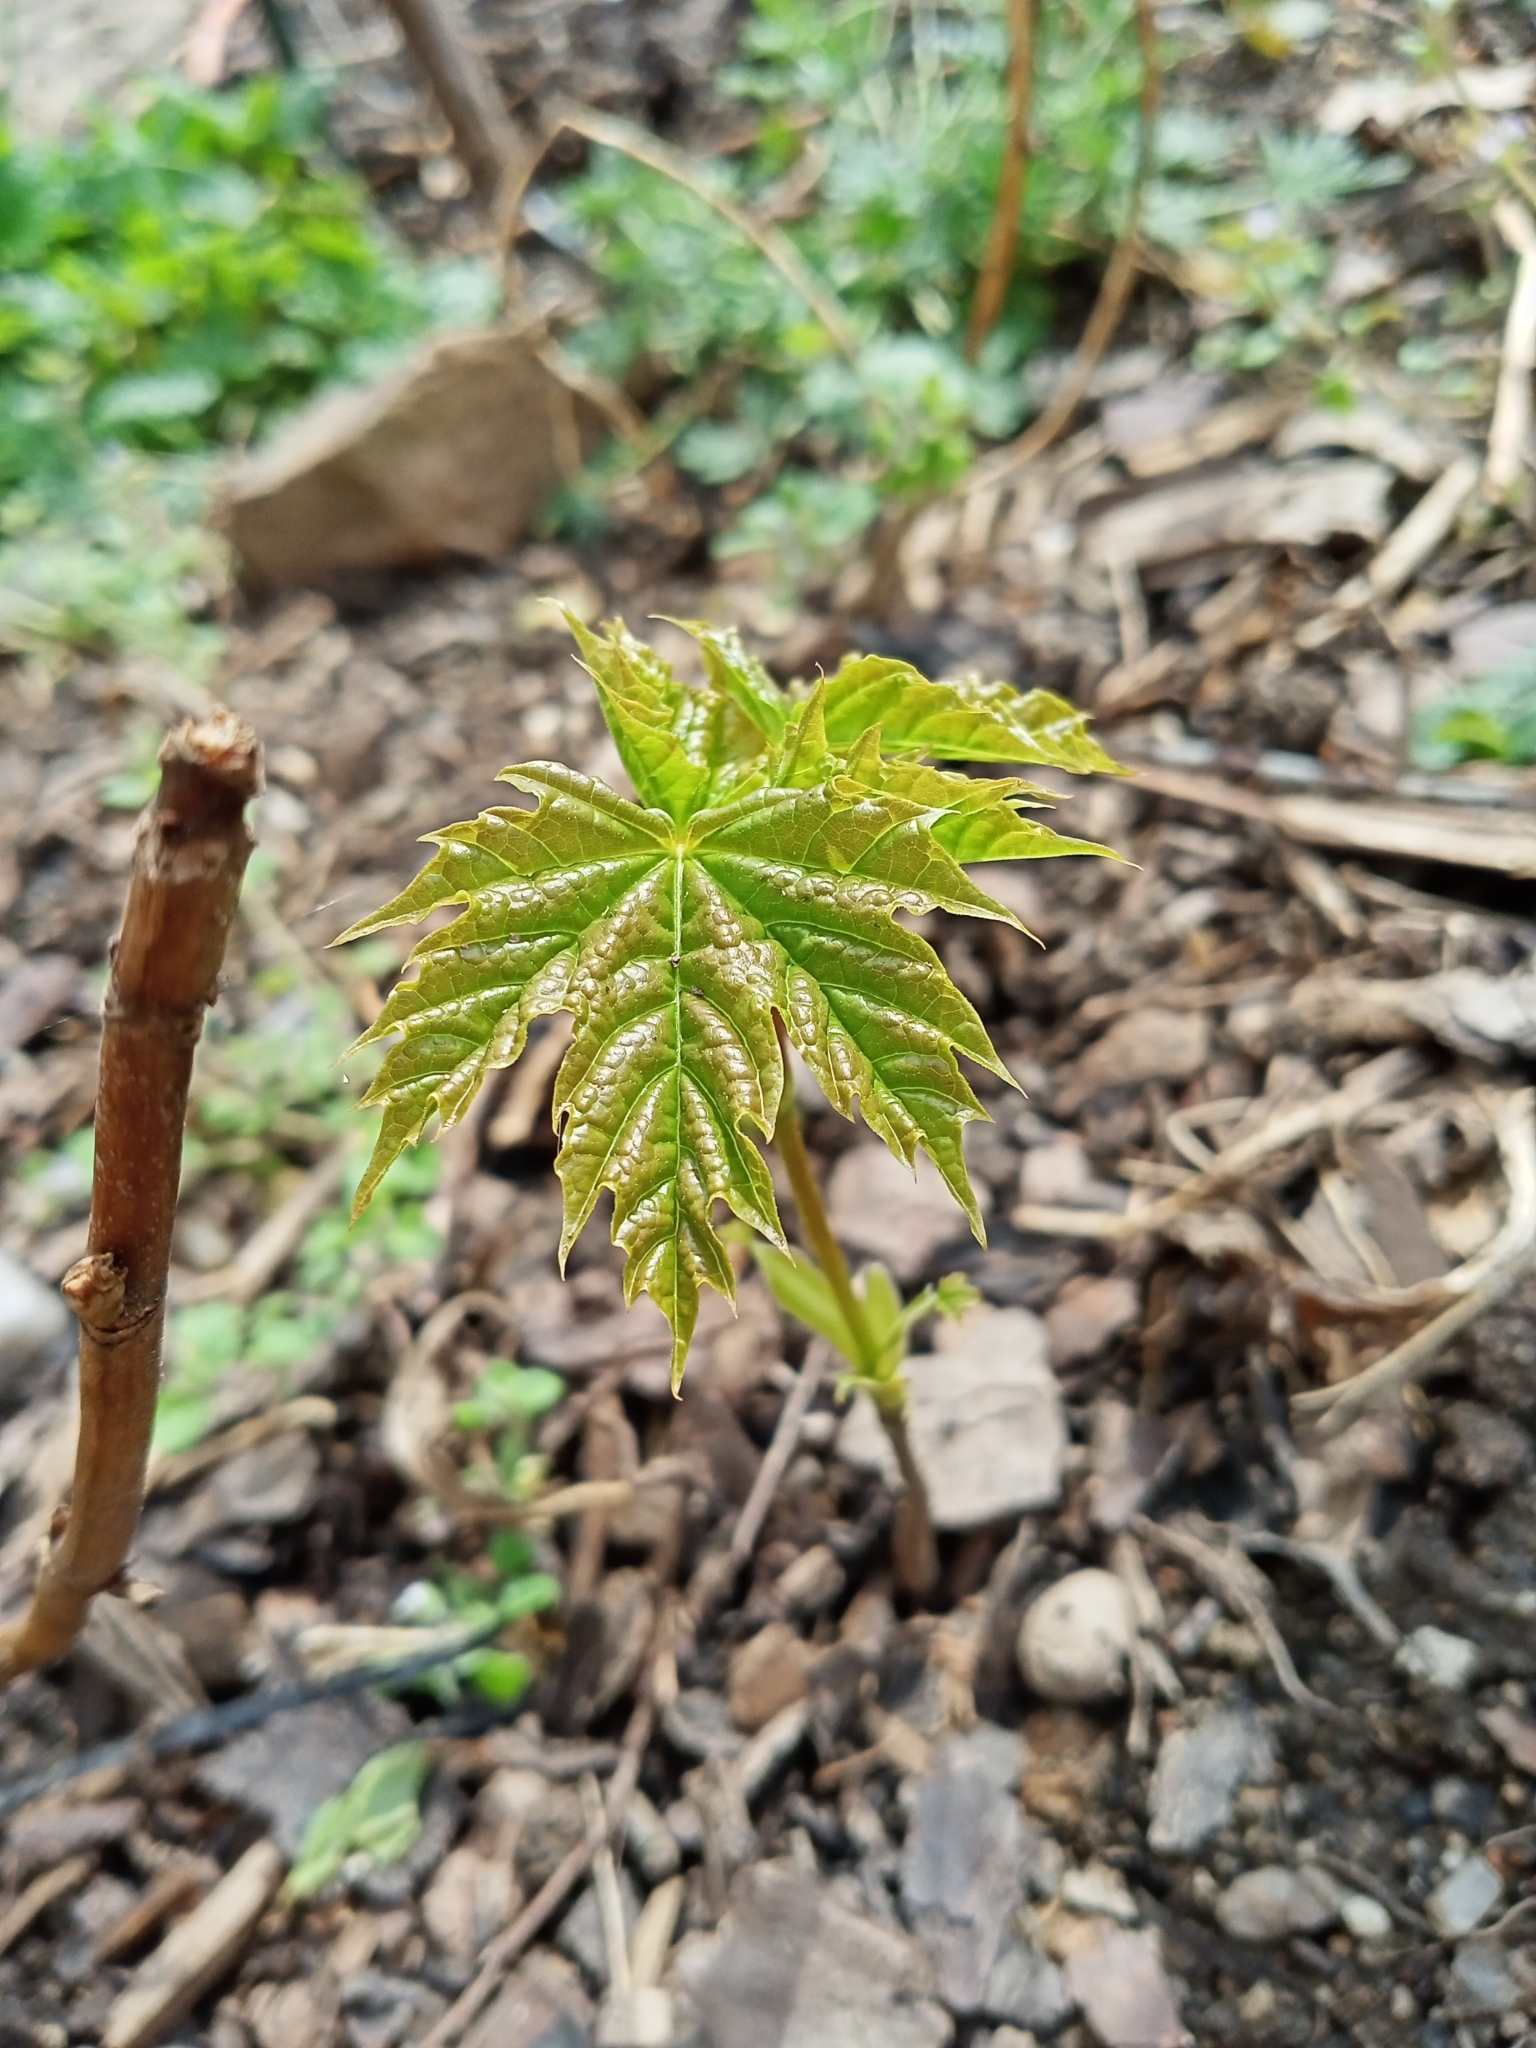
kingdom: Plantae
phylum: Tracheophyta
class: Magnoliopsida
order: Sapindales
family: Sapindaceae
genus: Acer
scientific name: Acer platanoides
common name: Norway maple
